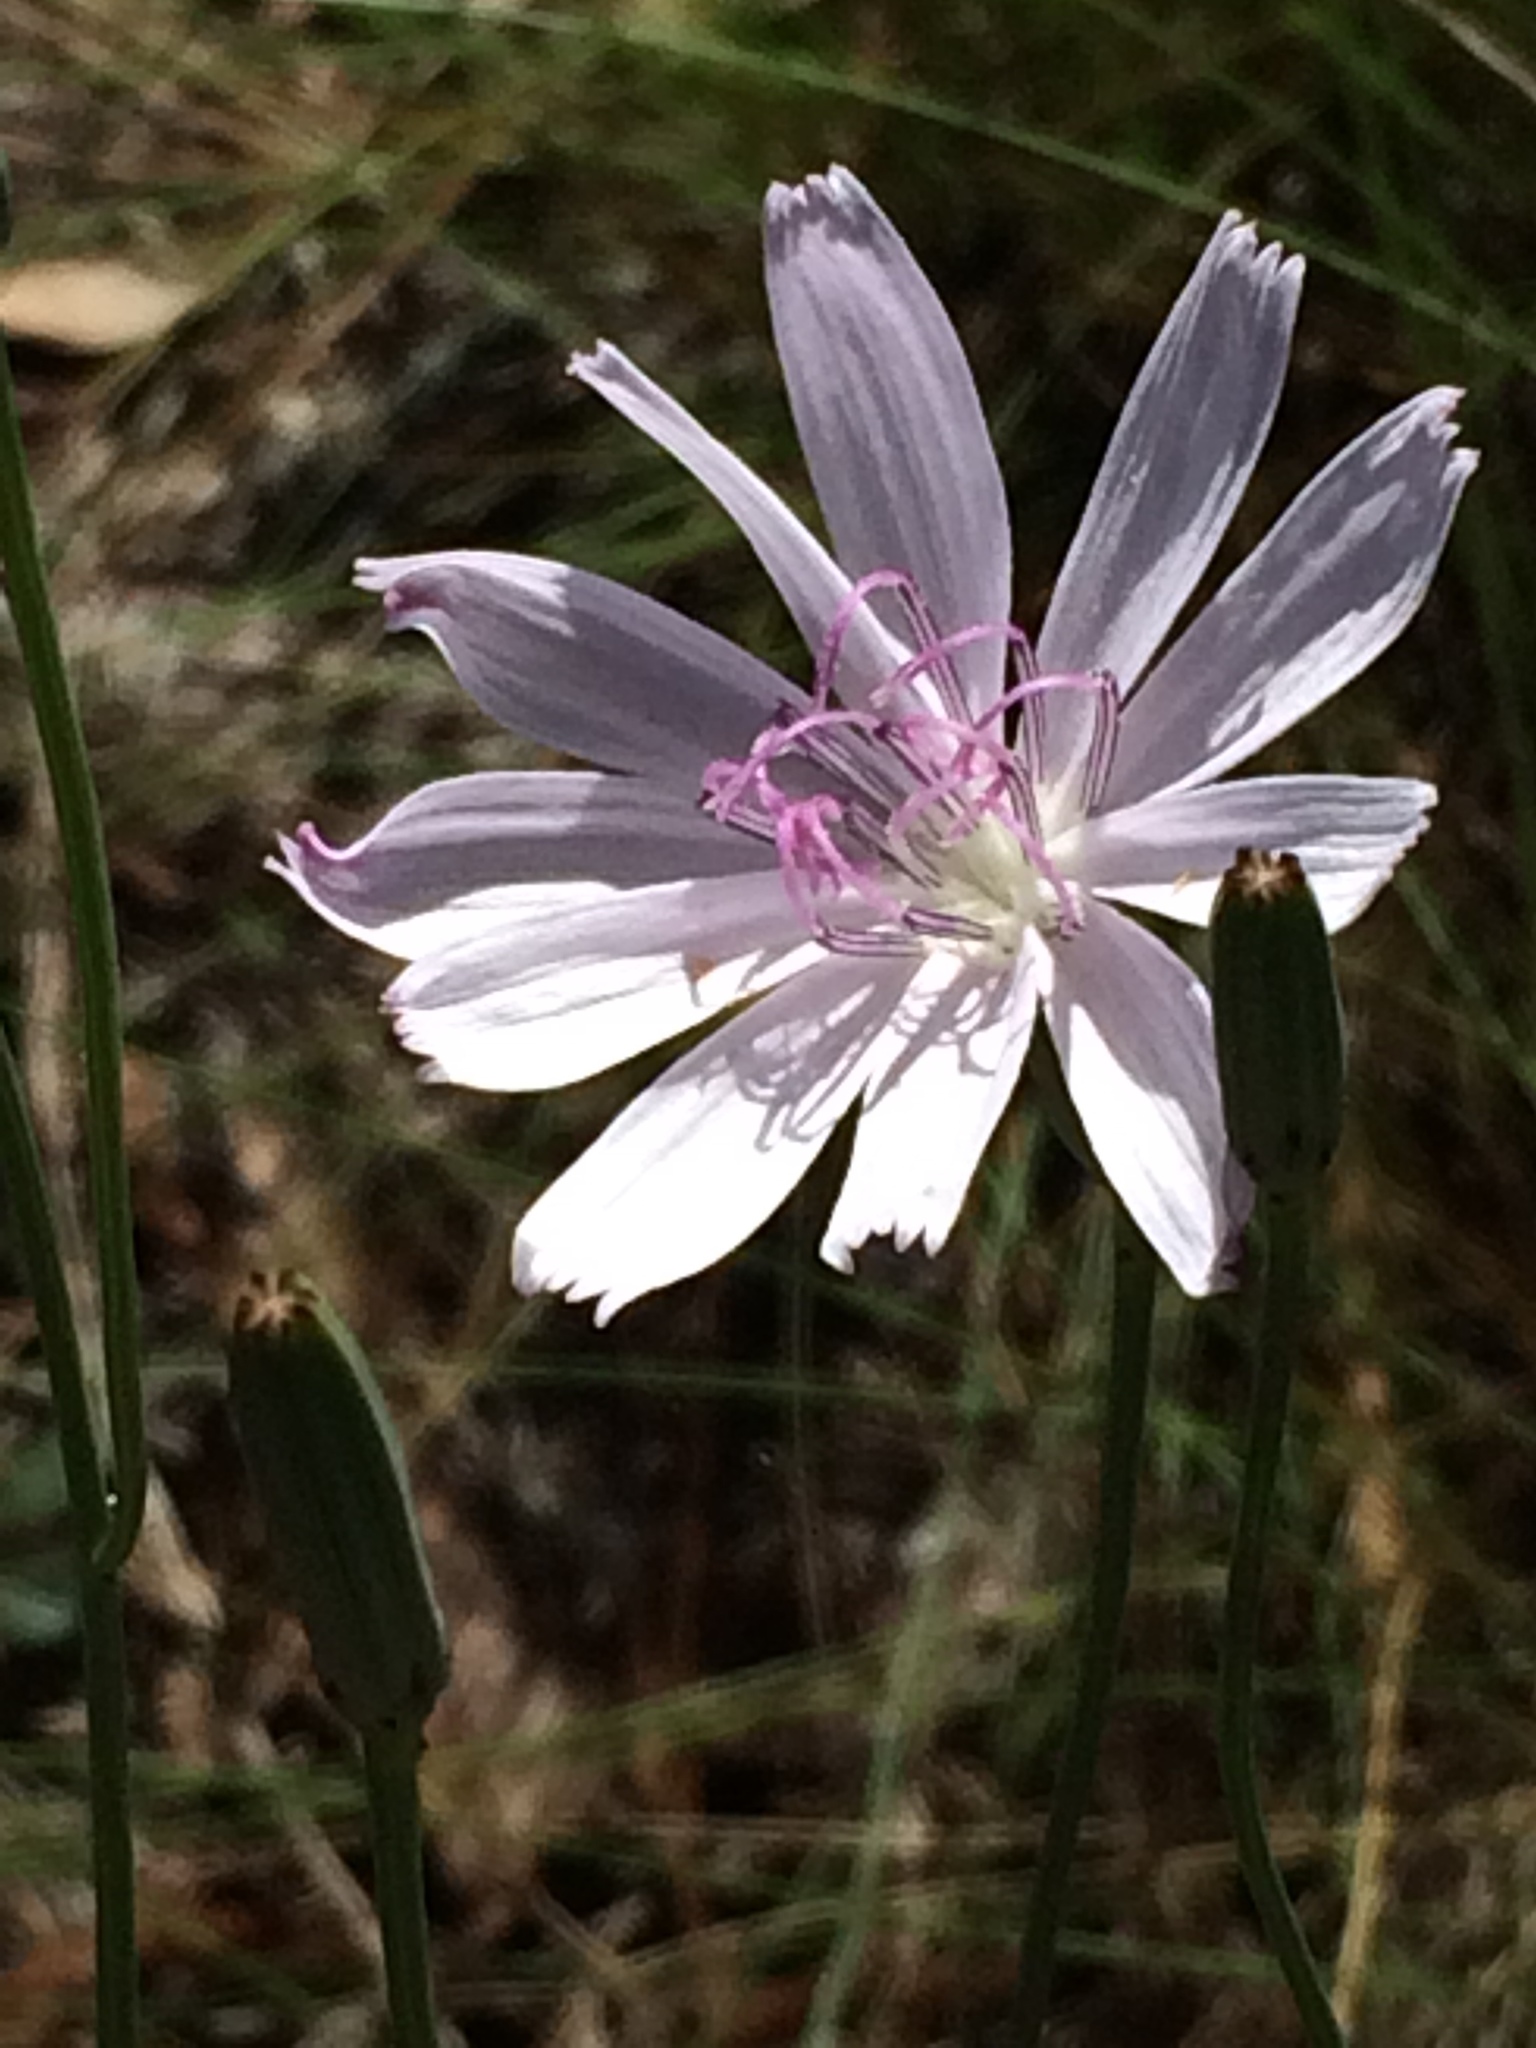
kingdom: Plantae
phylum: Tracheophyta
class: Magnoliopsida
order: Asterales
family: Asteraceae
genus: Lygodesmia
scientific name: Lygodesmia aphylla
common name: Rose-rush
